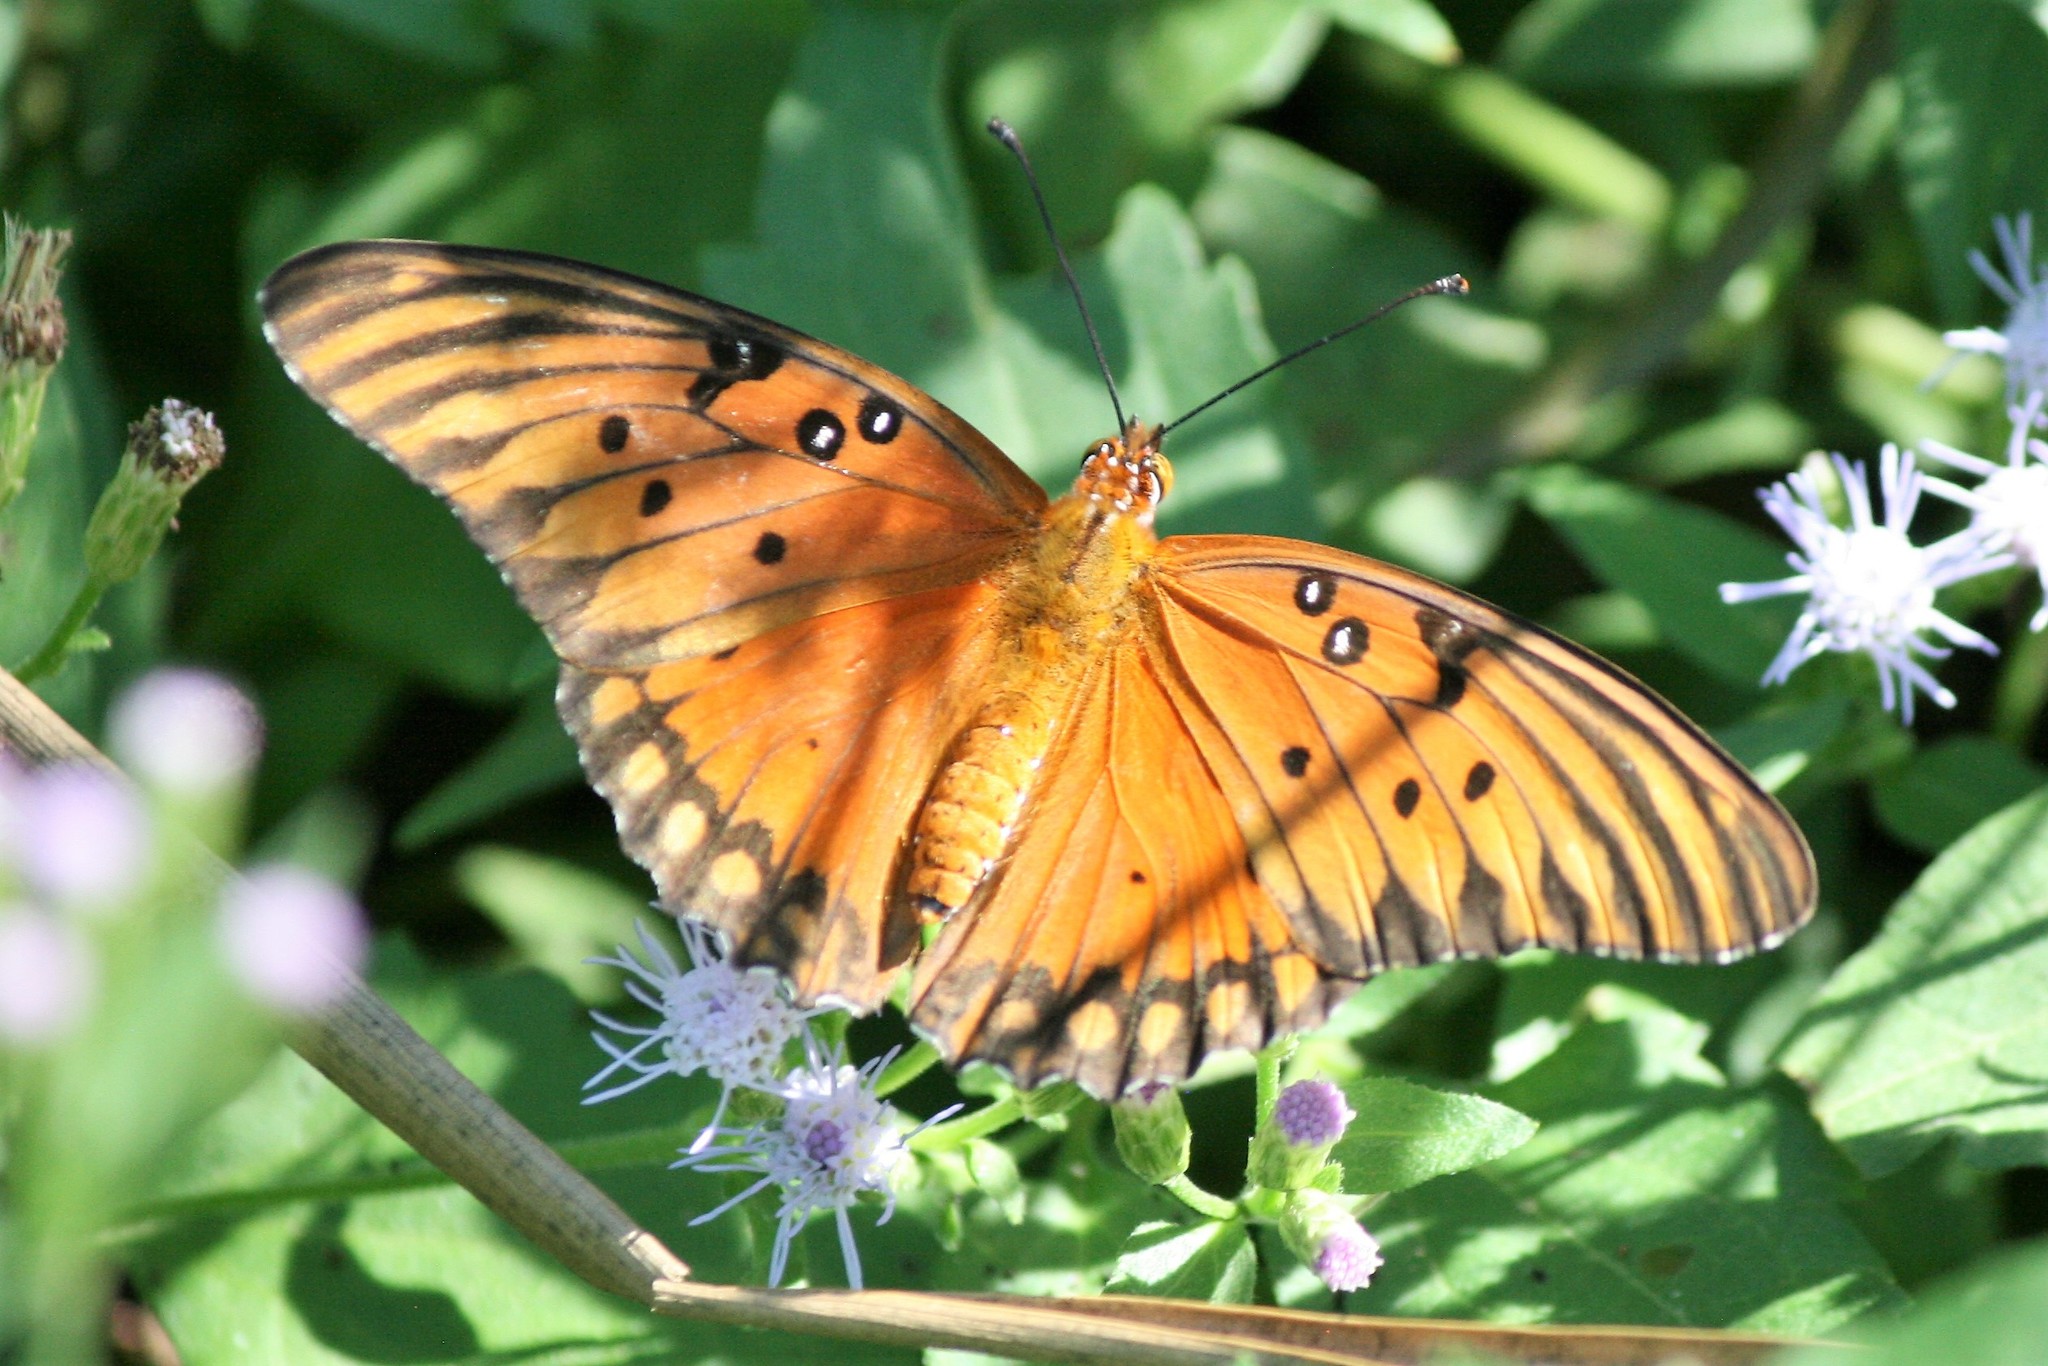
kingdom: Animalia
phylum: Arthropoda
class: Insecta
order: Lepidoptera
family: Nymphalidae
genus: Dione
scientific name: Dione vanillae
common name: Gulf fritillary
